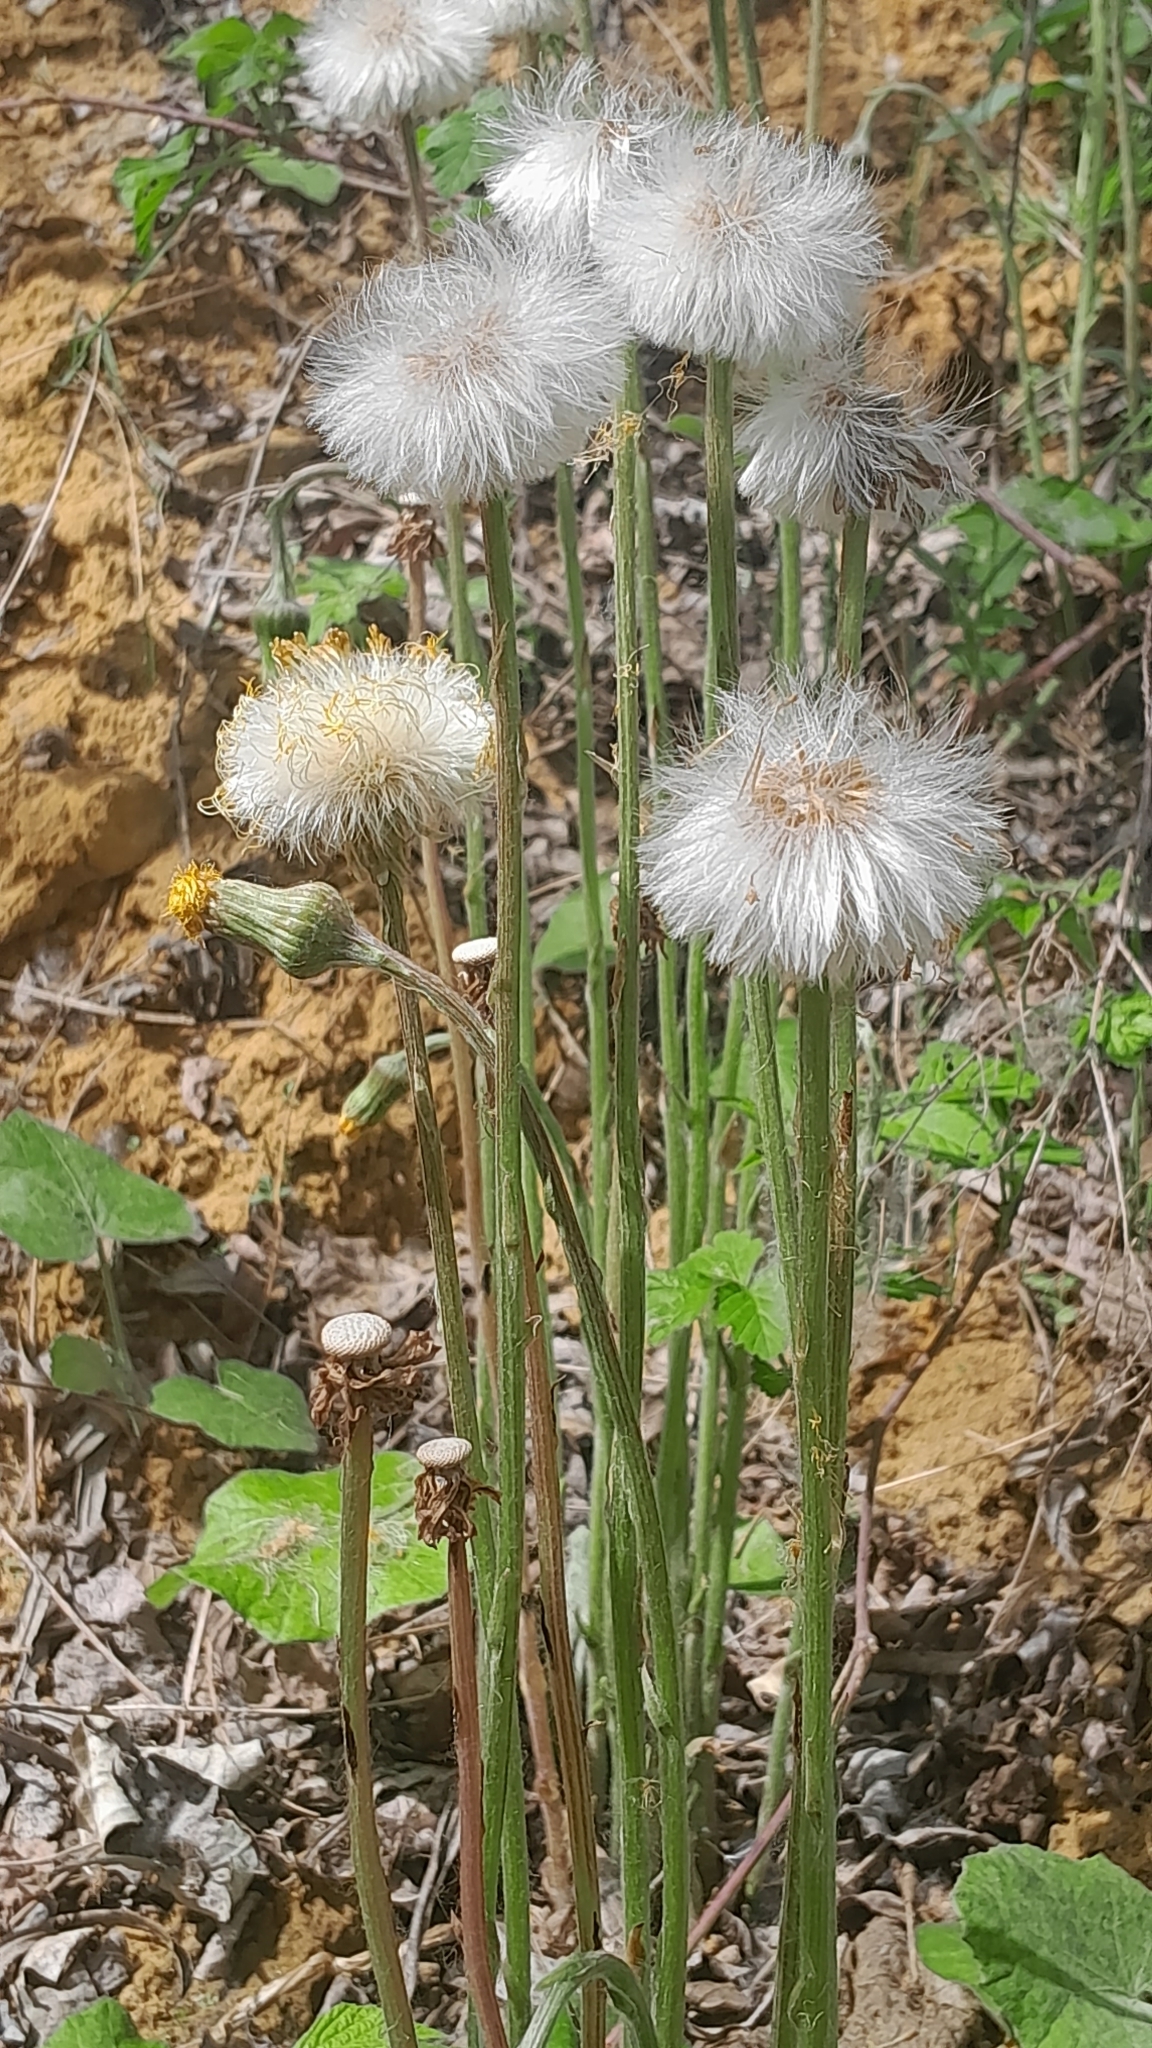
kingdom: Plantae
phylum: Tracheophyta
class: Magnoliopsida
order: Asterales
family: Asteraceae
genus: Tussilago
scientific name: Tussilago farfara
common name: Coltsfoot
